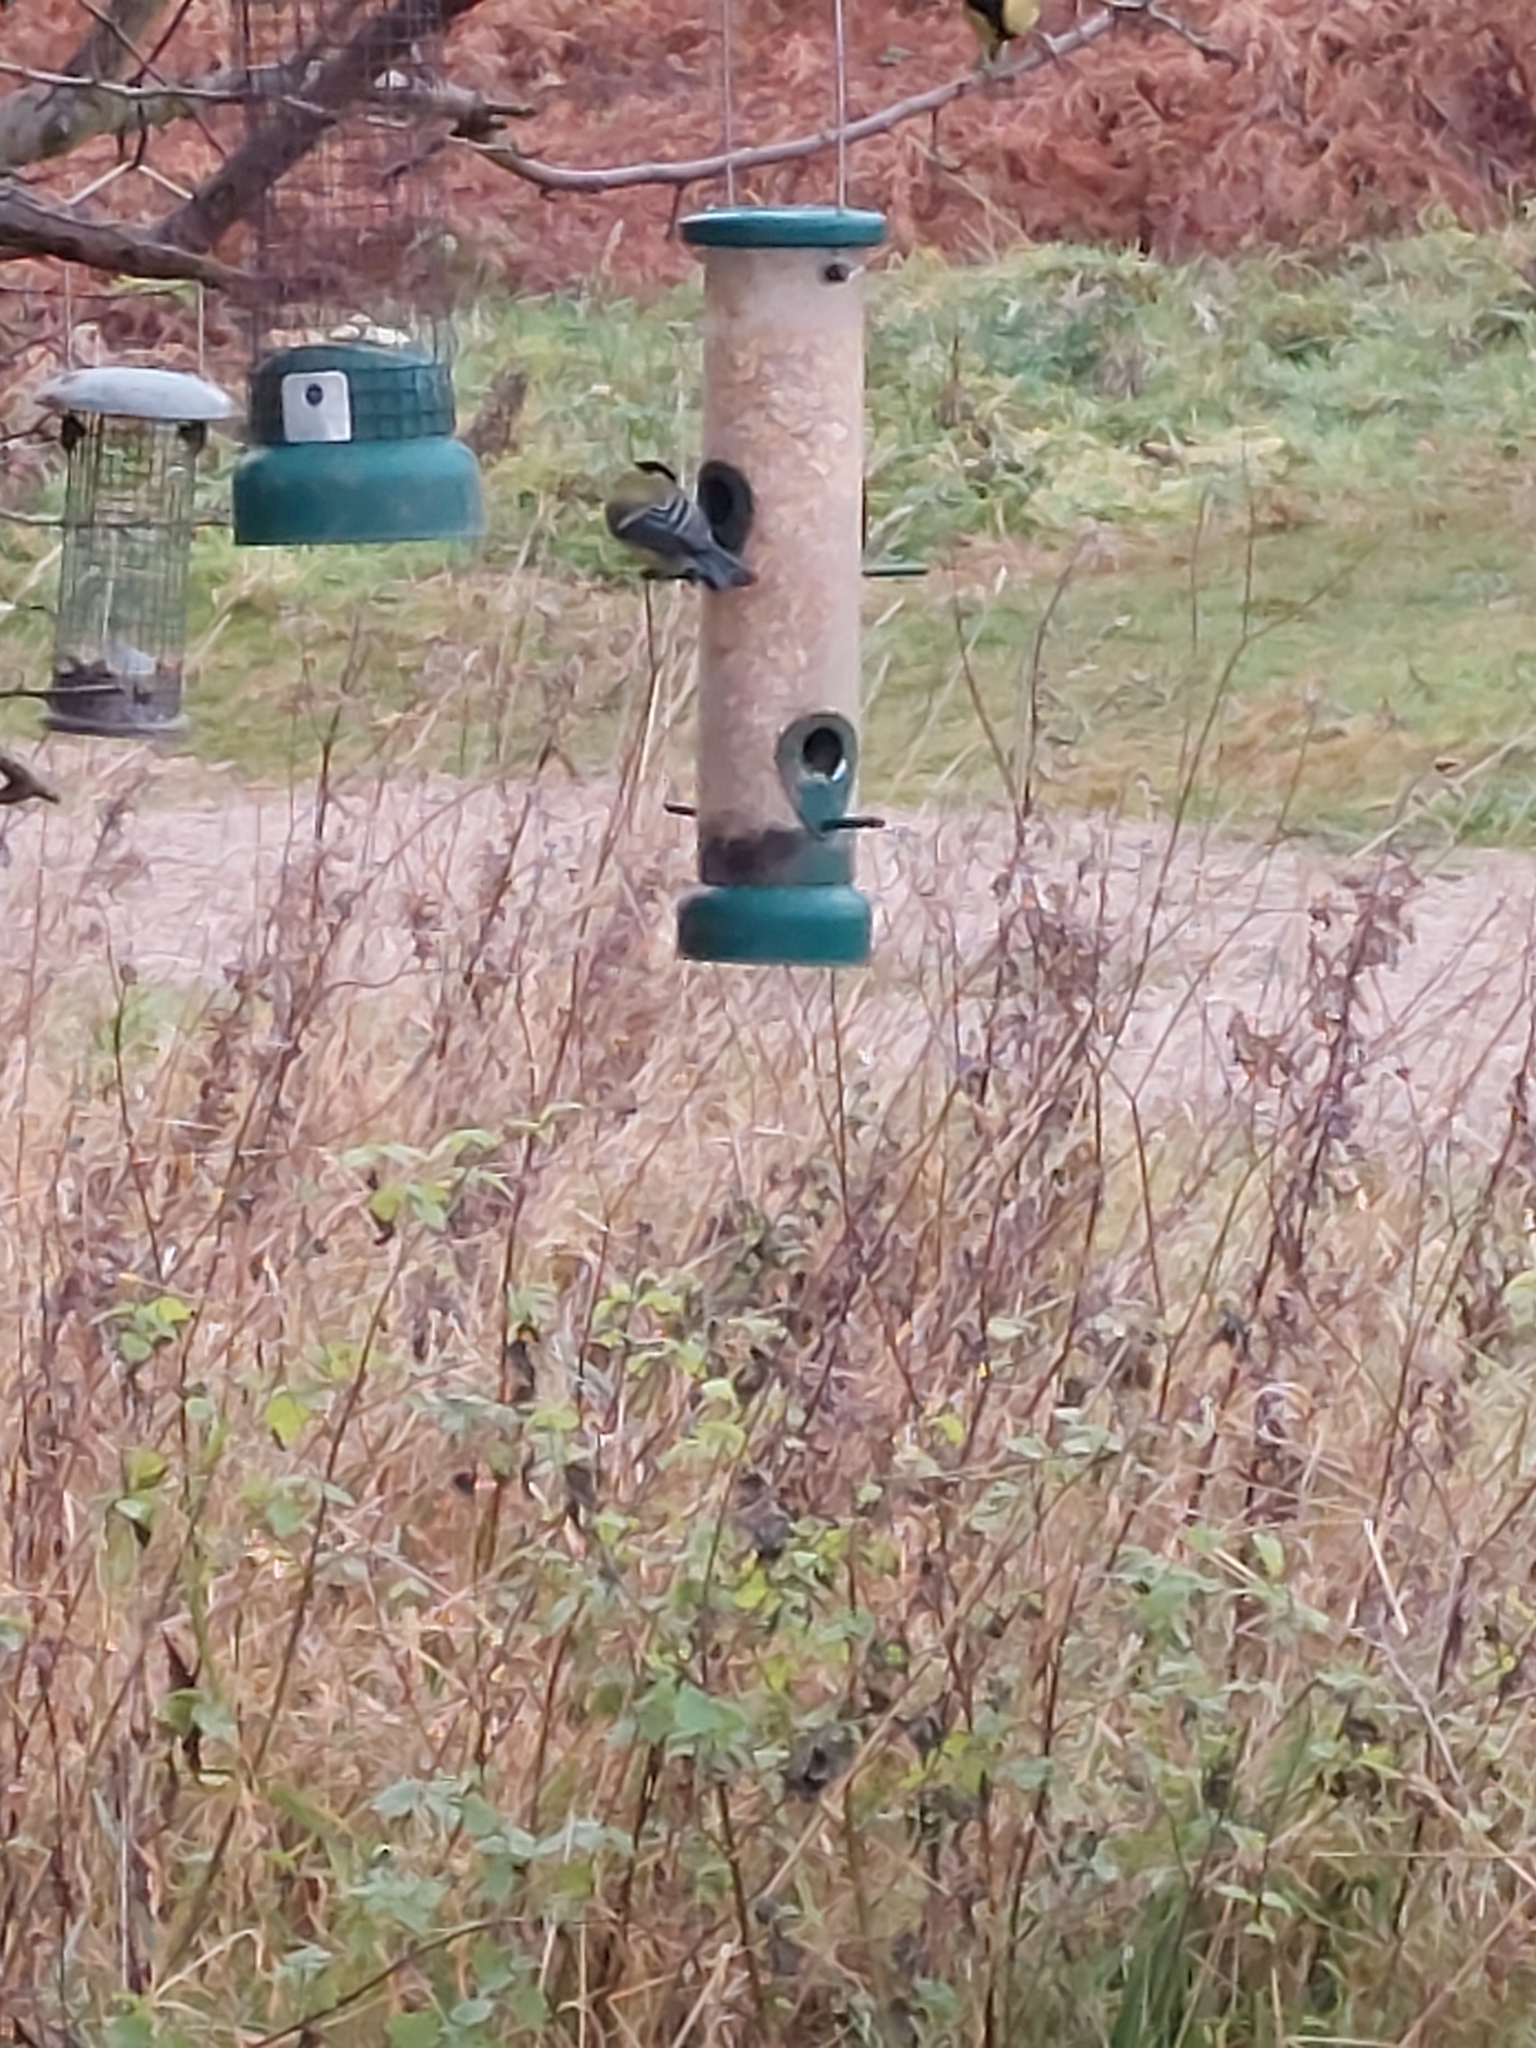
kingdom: Animalia
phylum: Chordata
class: Aves
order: Passeriformes
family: Paridae
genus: Parus
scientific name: Parus major
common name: Great tit
